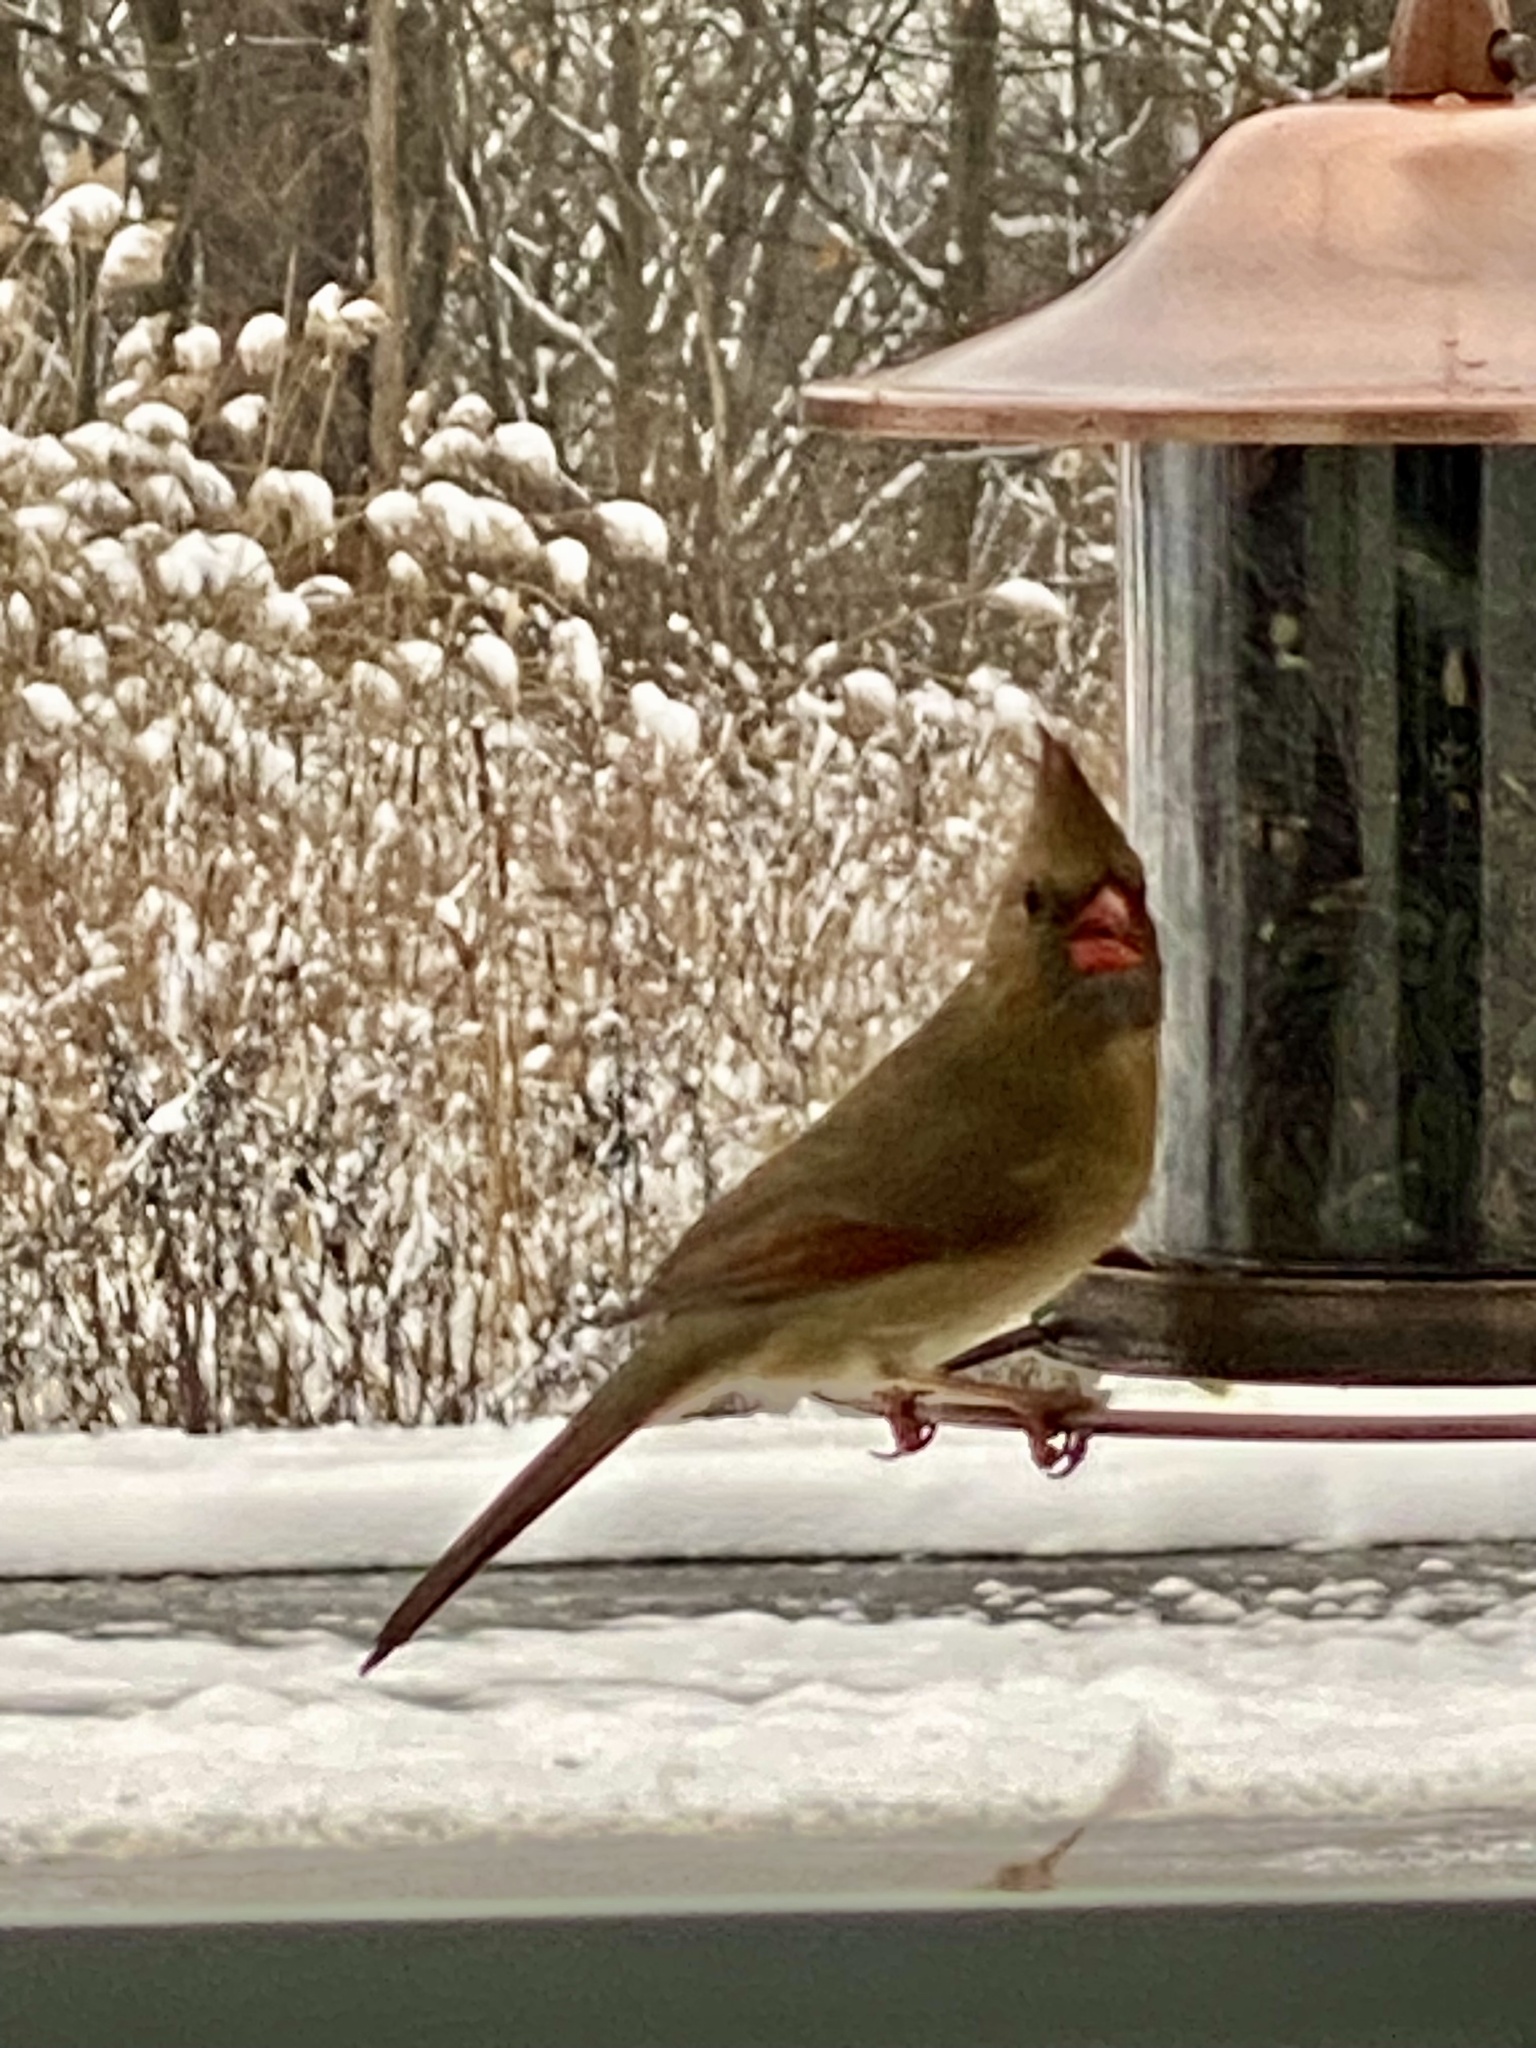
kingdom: Animalia
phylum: Chordata
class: Aves
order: Passeriformes
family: Cardinalidae
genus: Cardinalis
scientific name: Cardinalis cardinalis
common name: Northern cardinal
